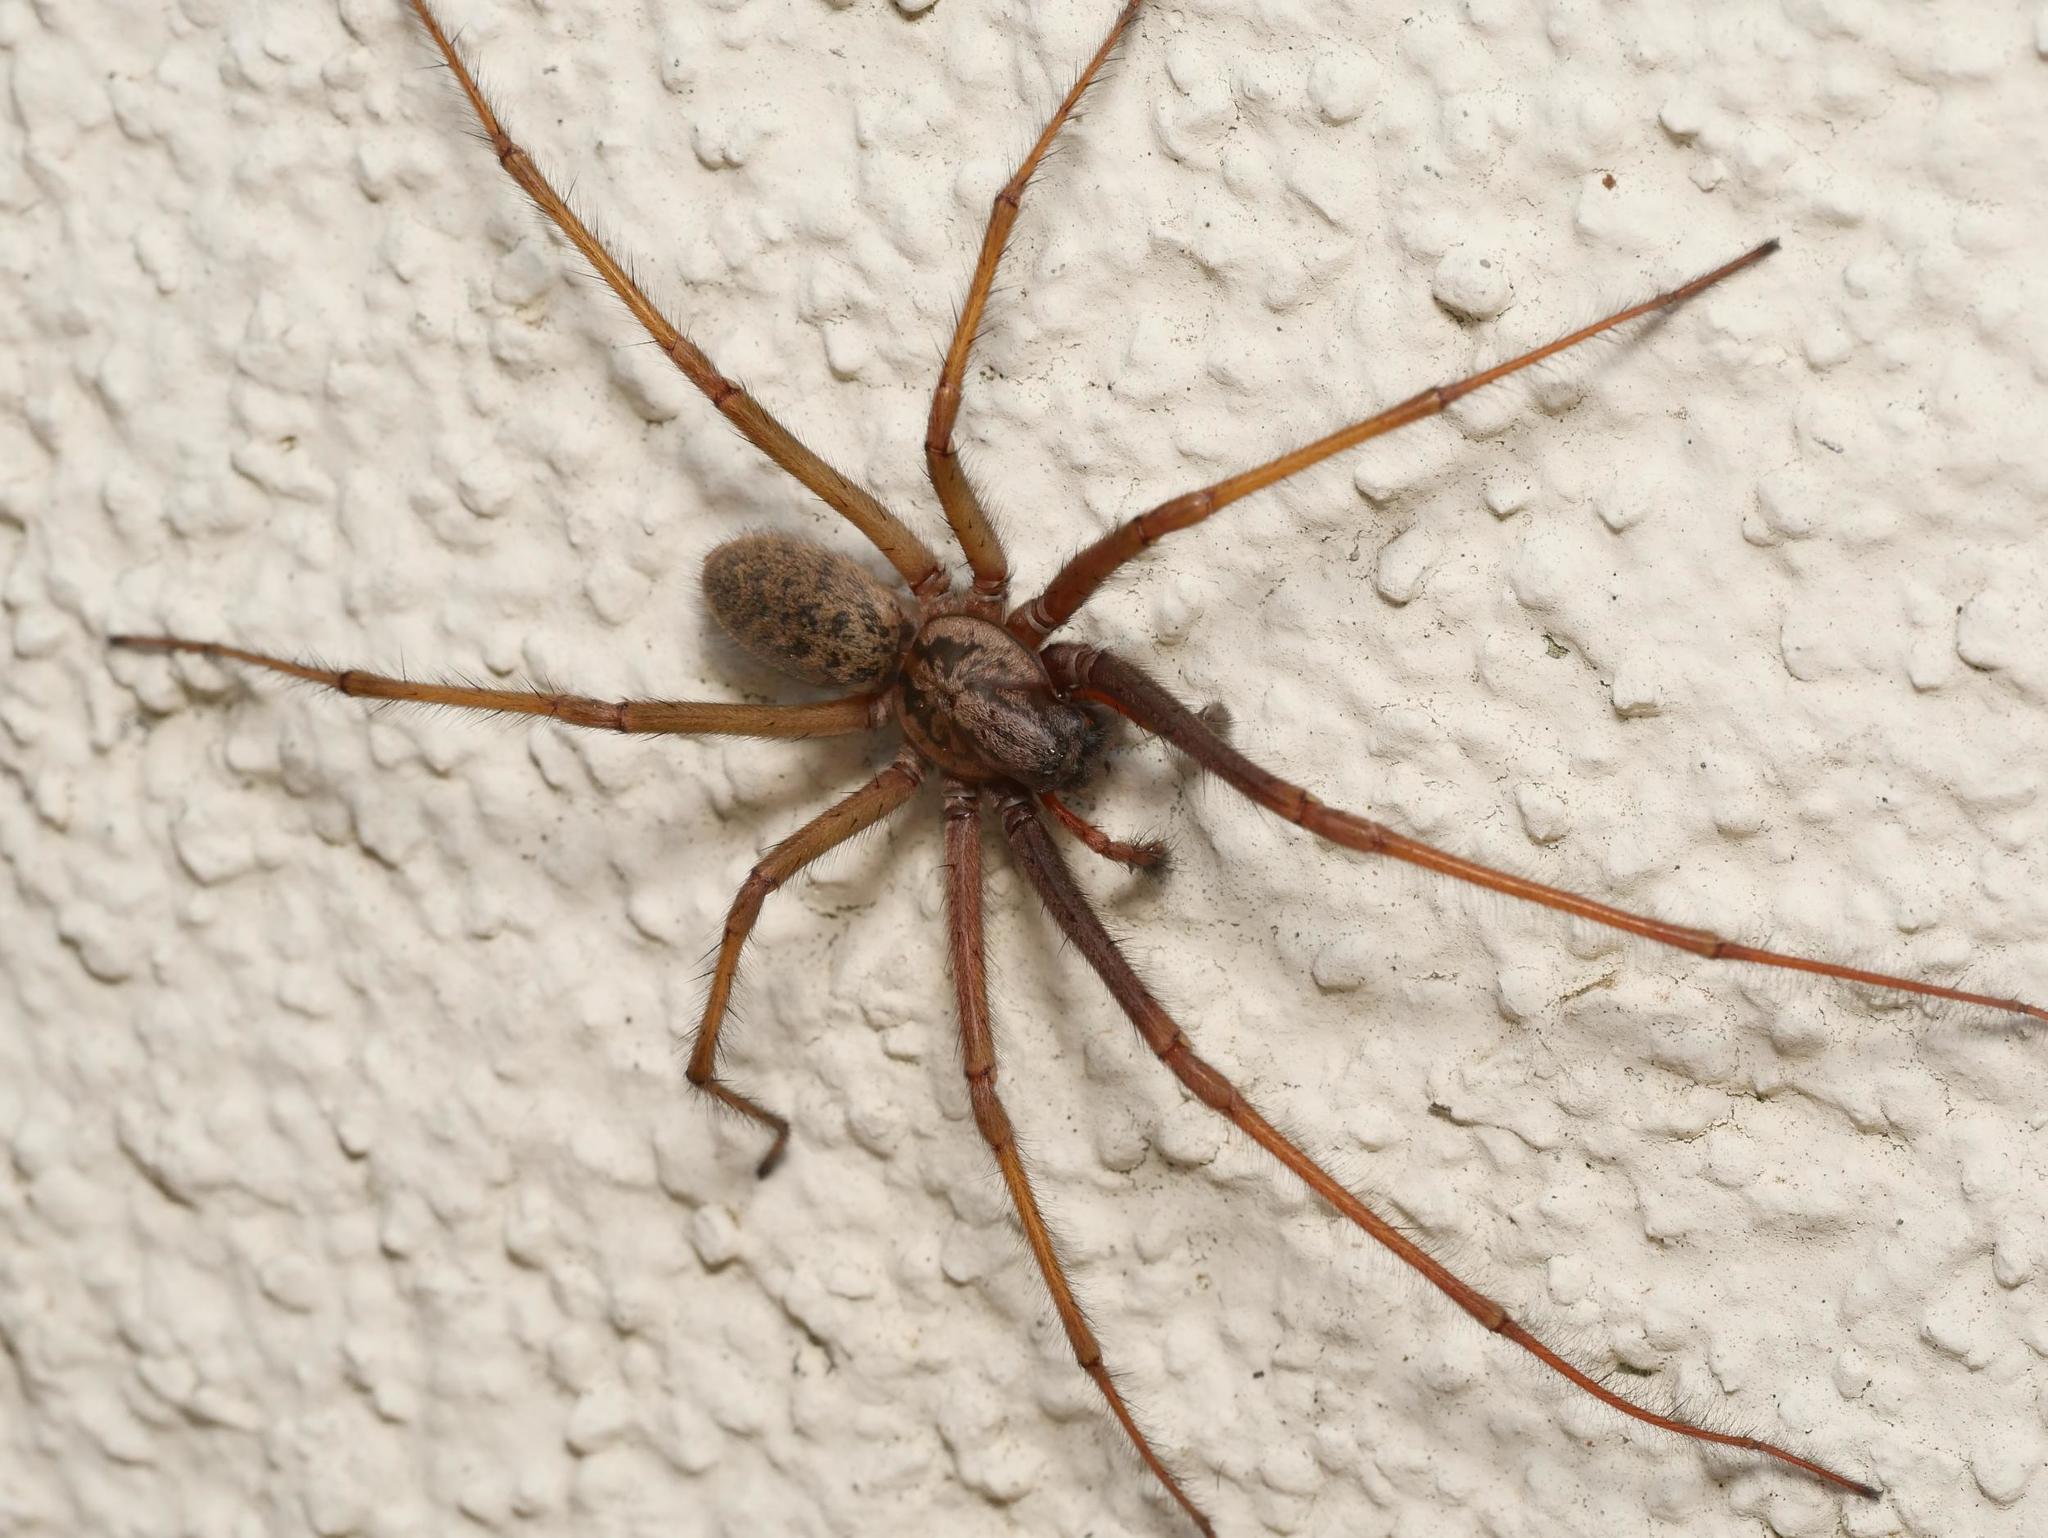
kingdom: Animalia
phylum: Arthropoda
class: Arachnida
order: Araneae
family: Agelenidae
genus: Eratigena
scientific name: Eratigena atrica
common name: Giant house spider
